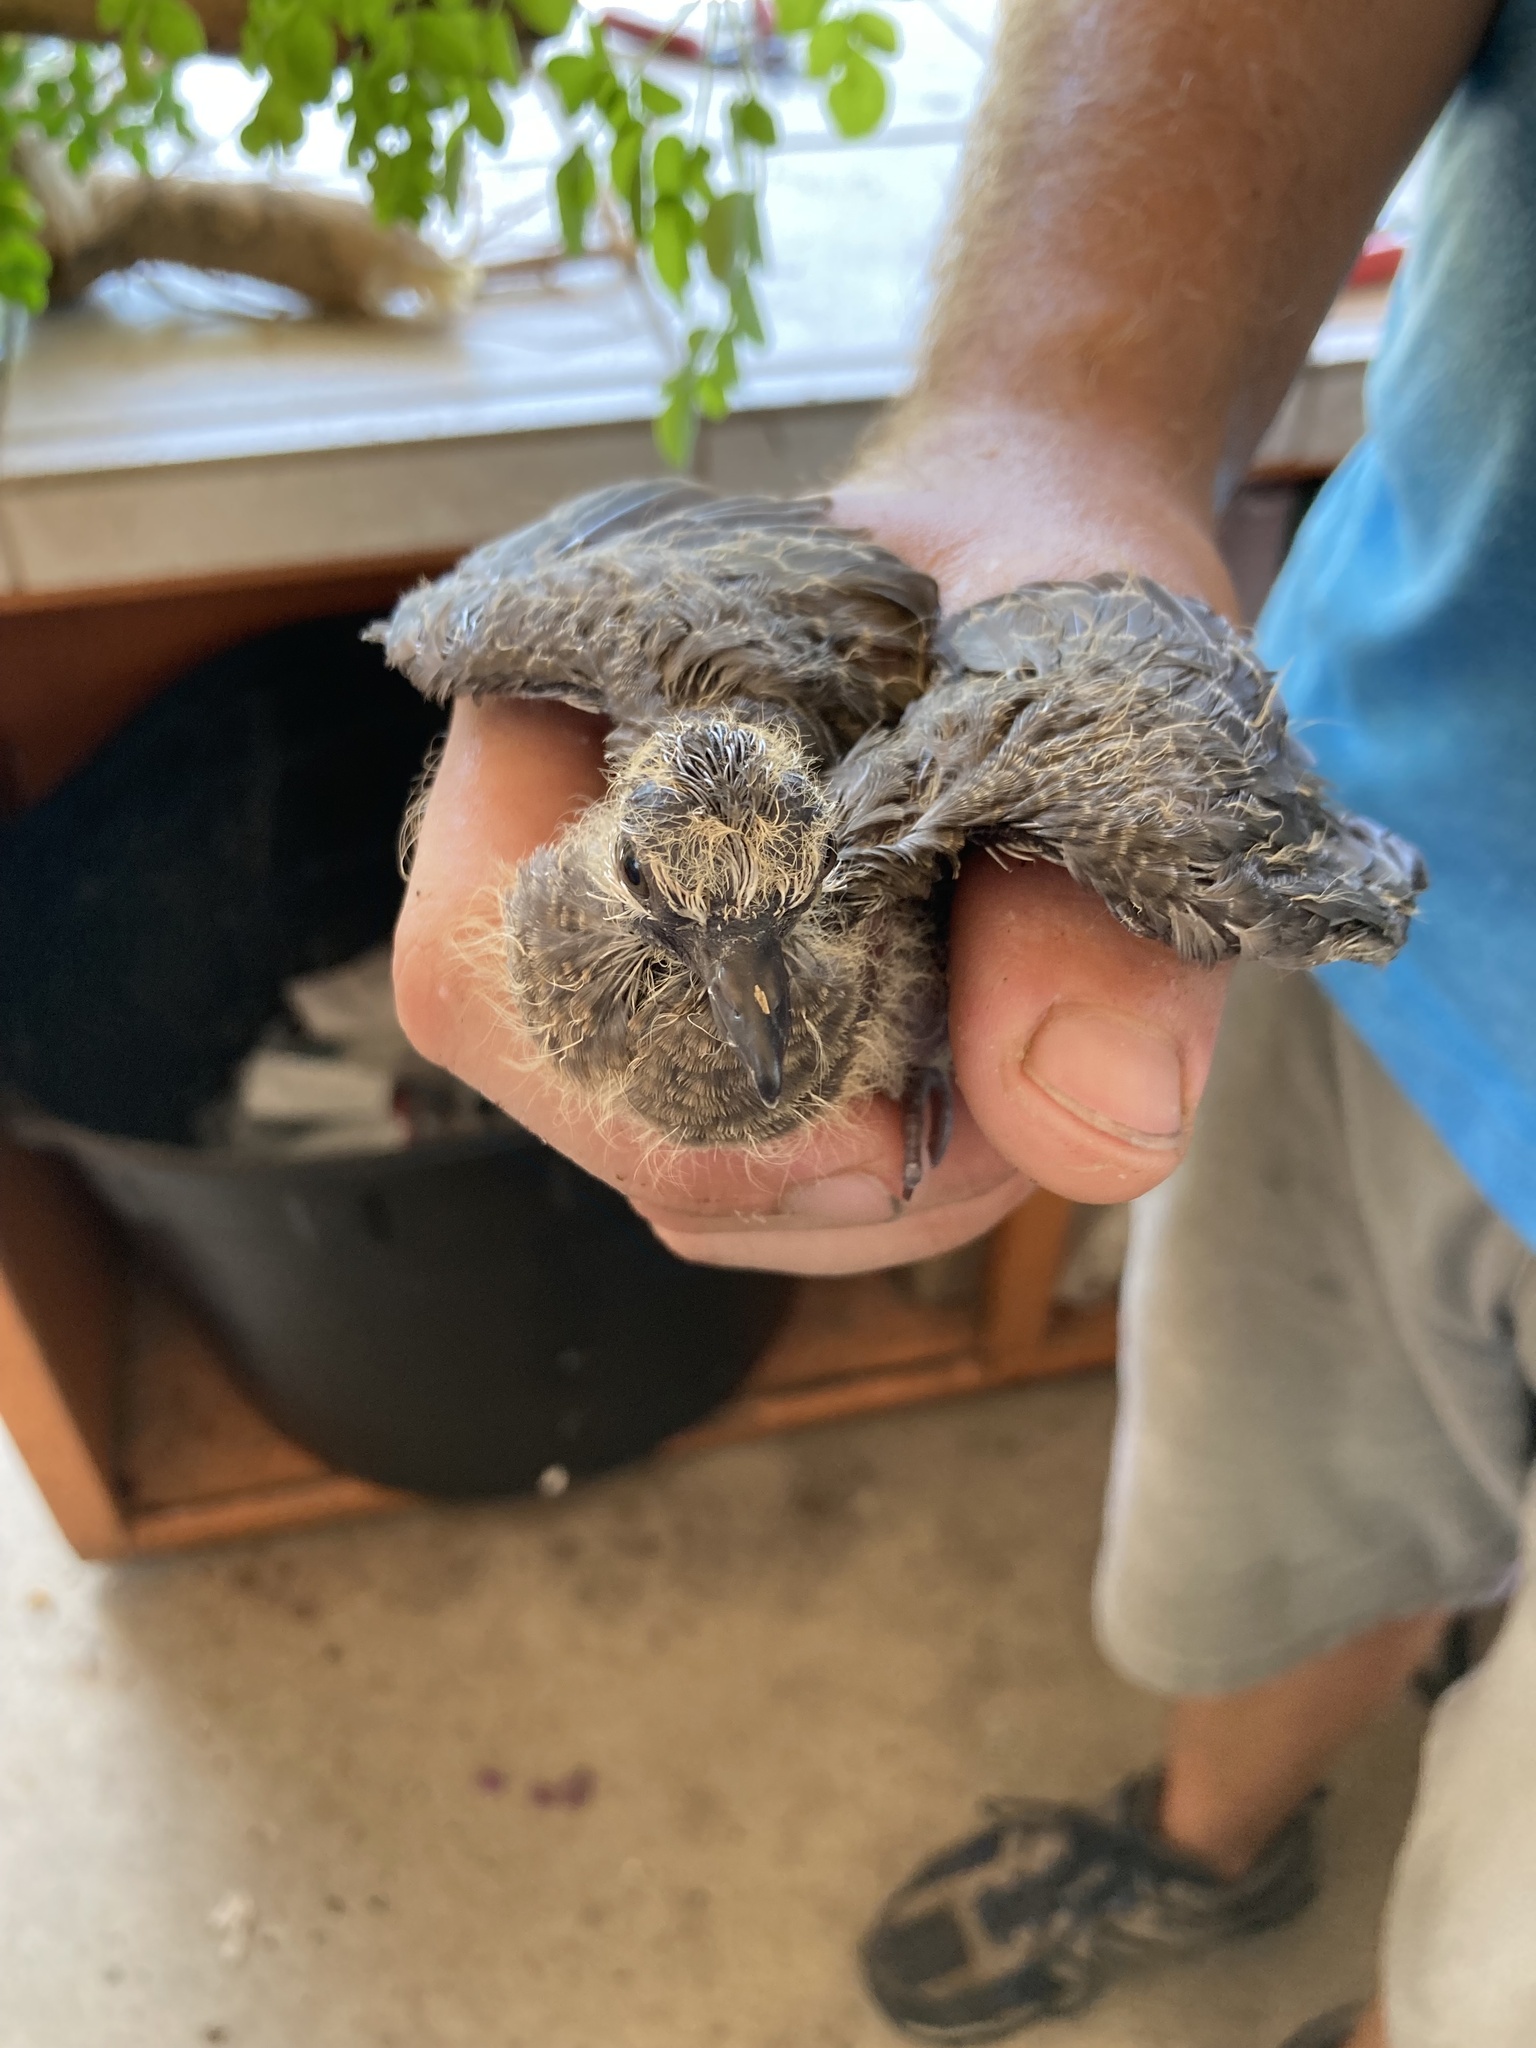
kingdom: Animalia
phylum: Chordata
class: Aves
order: Columbiformes
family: Columbidae
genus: Zenaida
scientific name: Zenaida macroura
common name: Mourning dove
